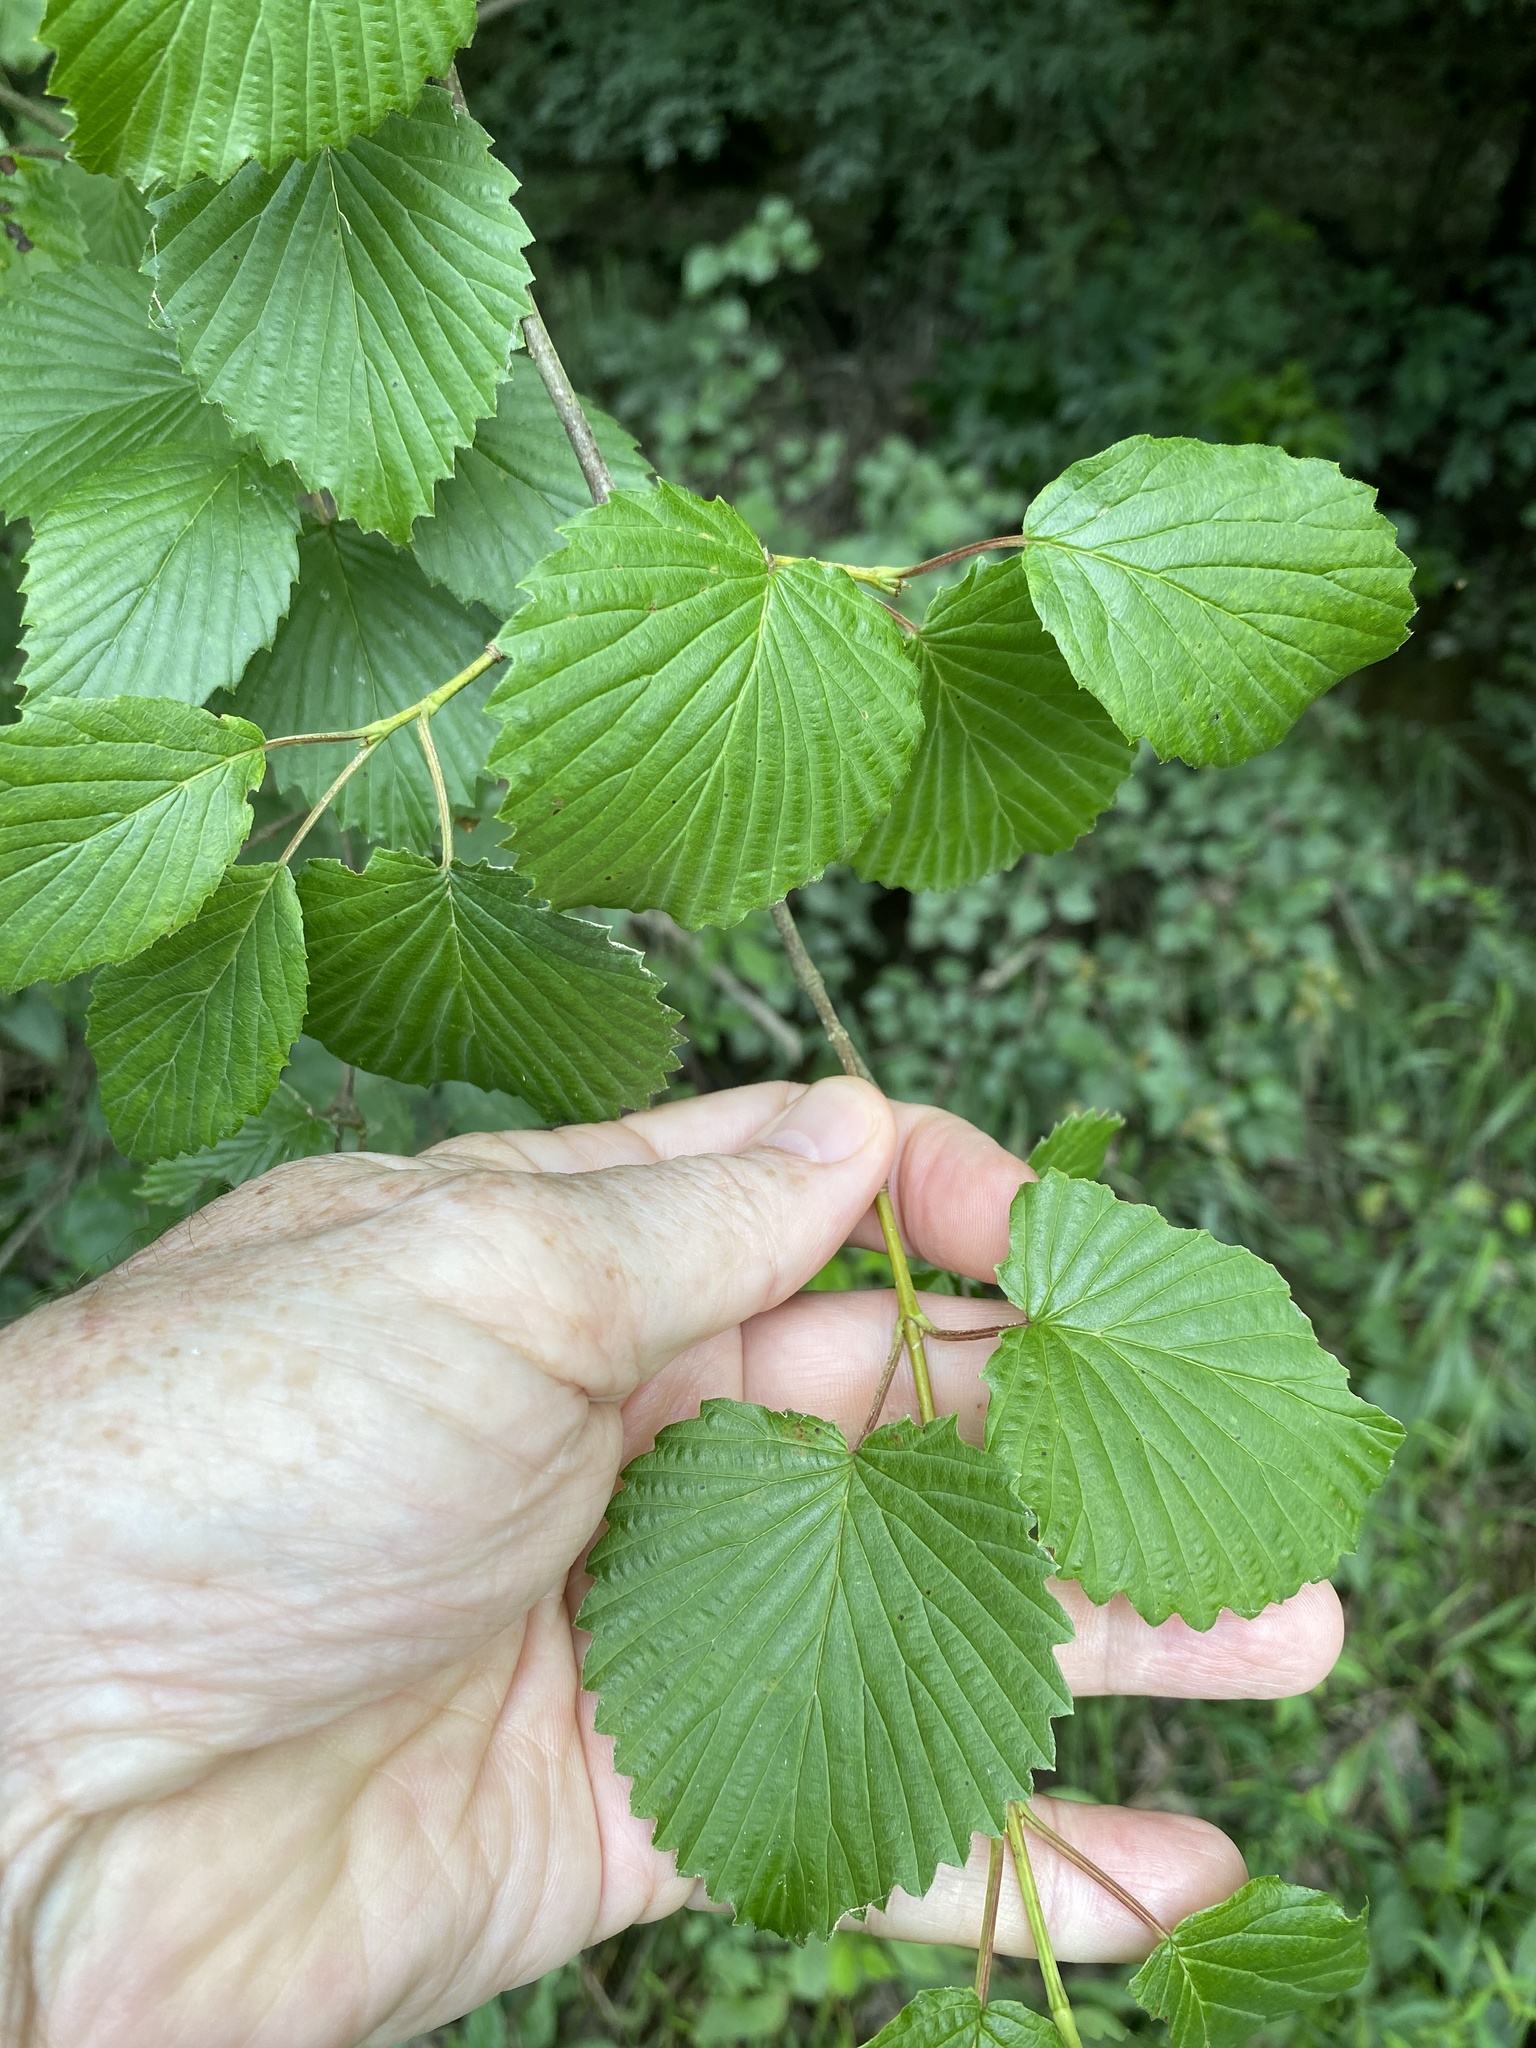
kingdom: Plantae
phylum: Tracheophyta
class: Magnoliopsida
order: Dipsacales
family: Viburnaceae
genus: Viburnum
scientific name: Viburnum recognitum
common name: Northern arrow-wood
